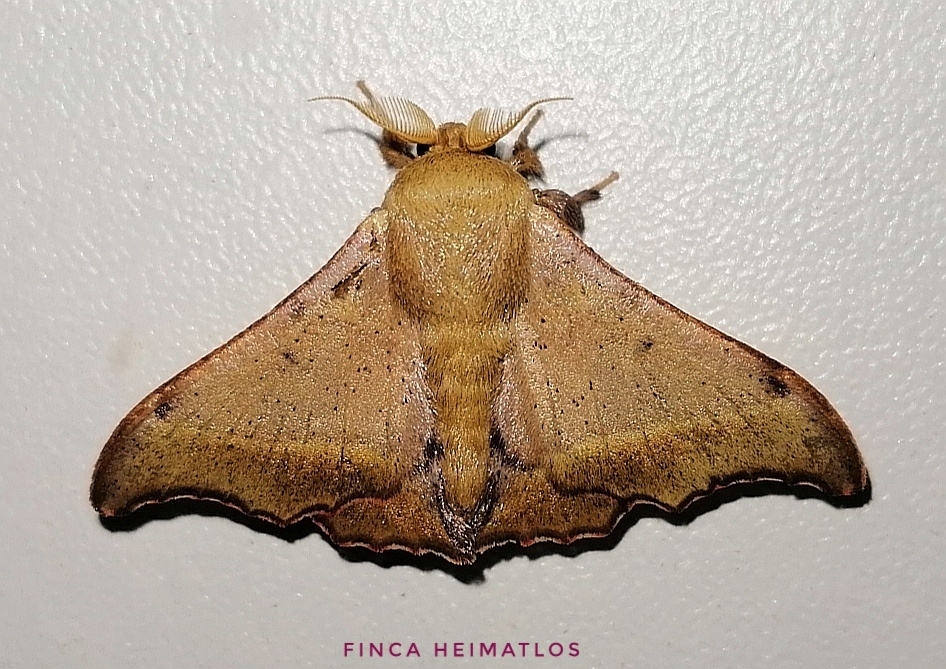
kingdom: Animalia
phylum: Arthropoda
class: Insecta
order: Lepidoptera
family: Mimallonidae
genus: Lacosoma
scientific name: Lacosoma oyapoca
